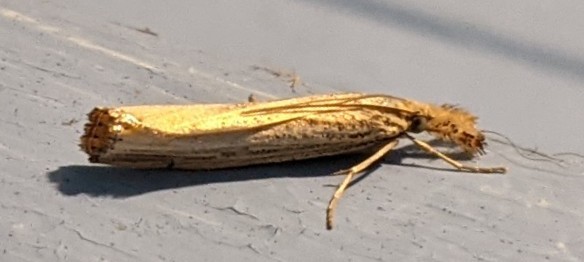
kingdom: Animalia
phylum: Arthropoda
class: Insecta
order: Lepidoptera
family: Crambidae
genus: Agriphila
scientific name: Agriphila vulgivagellus
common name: Vagabond crambus moth
